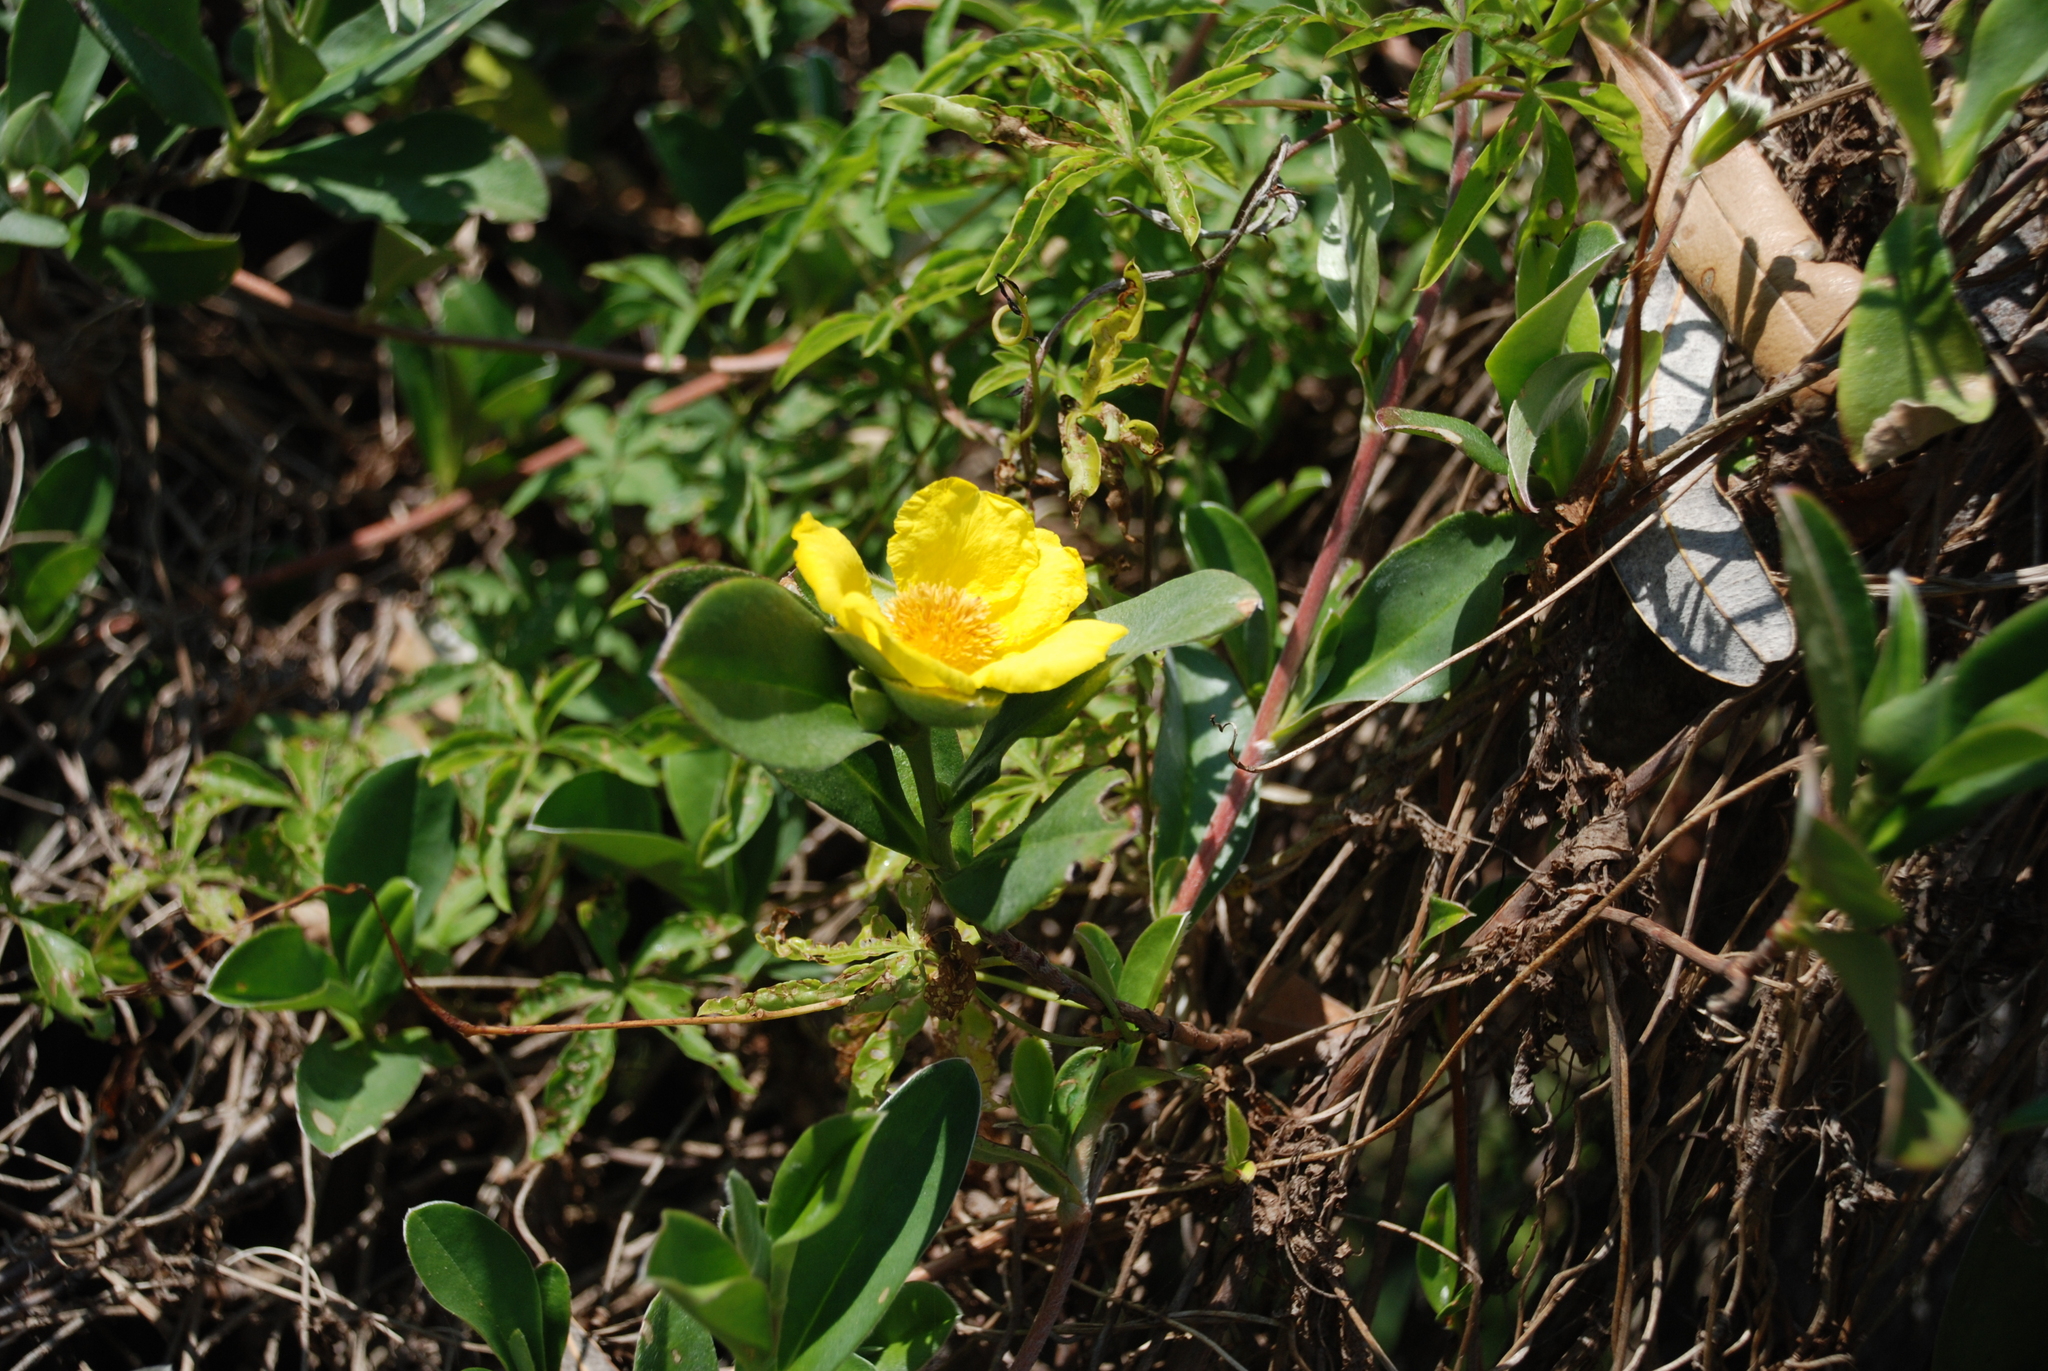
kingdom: Plantae
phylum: Tracheophyta
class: Magnoliopsida
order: Dilleniales
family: Dilleniaceae
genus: Hibbertia
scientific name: Hibbertia scandens
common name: Climbing guinea-flower
